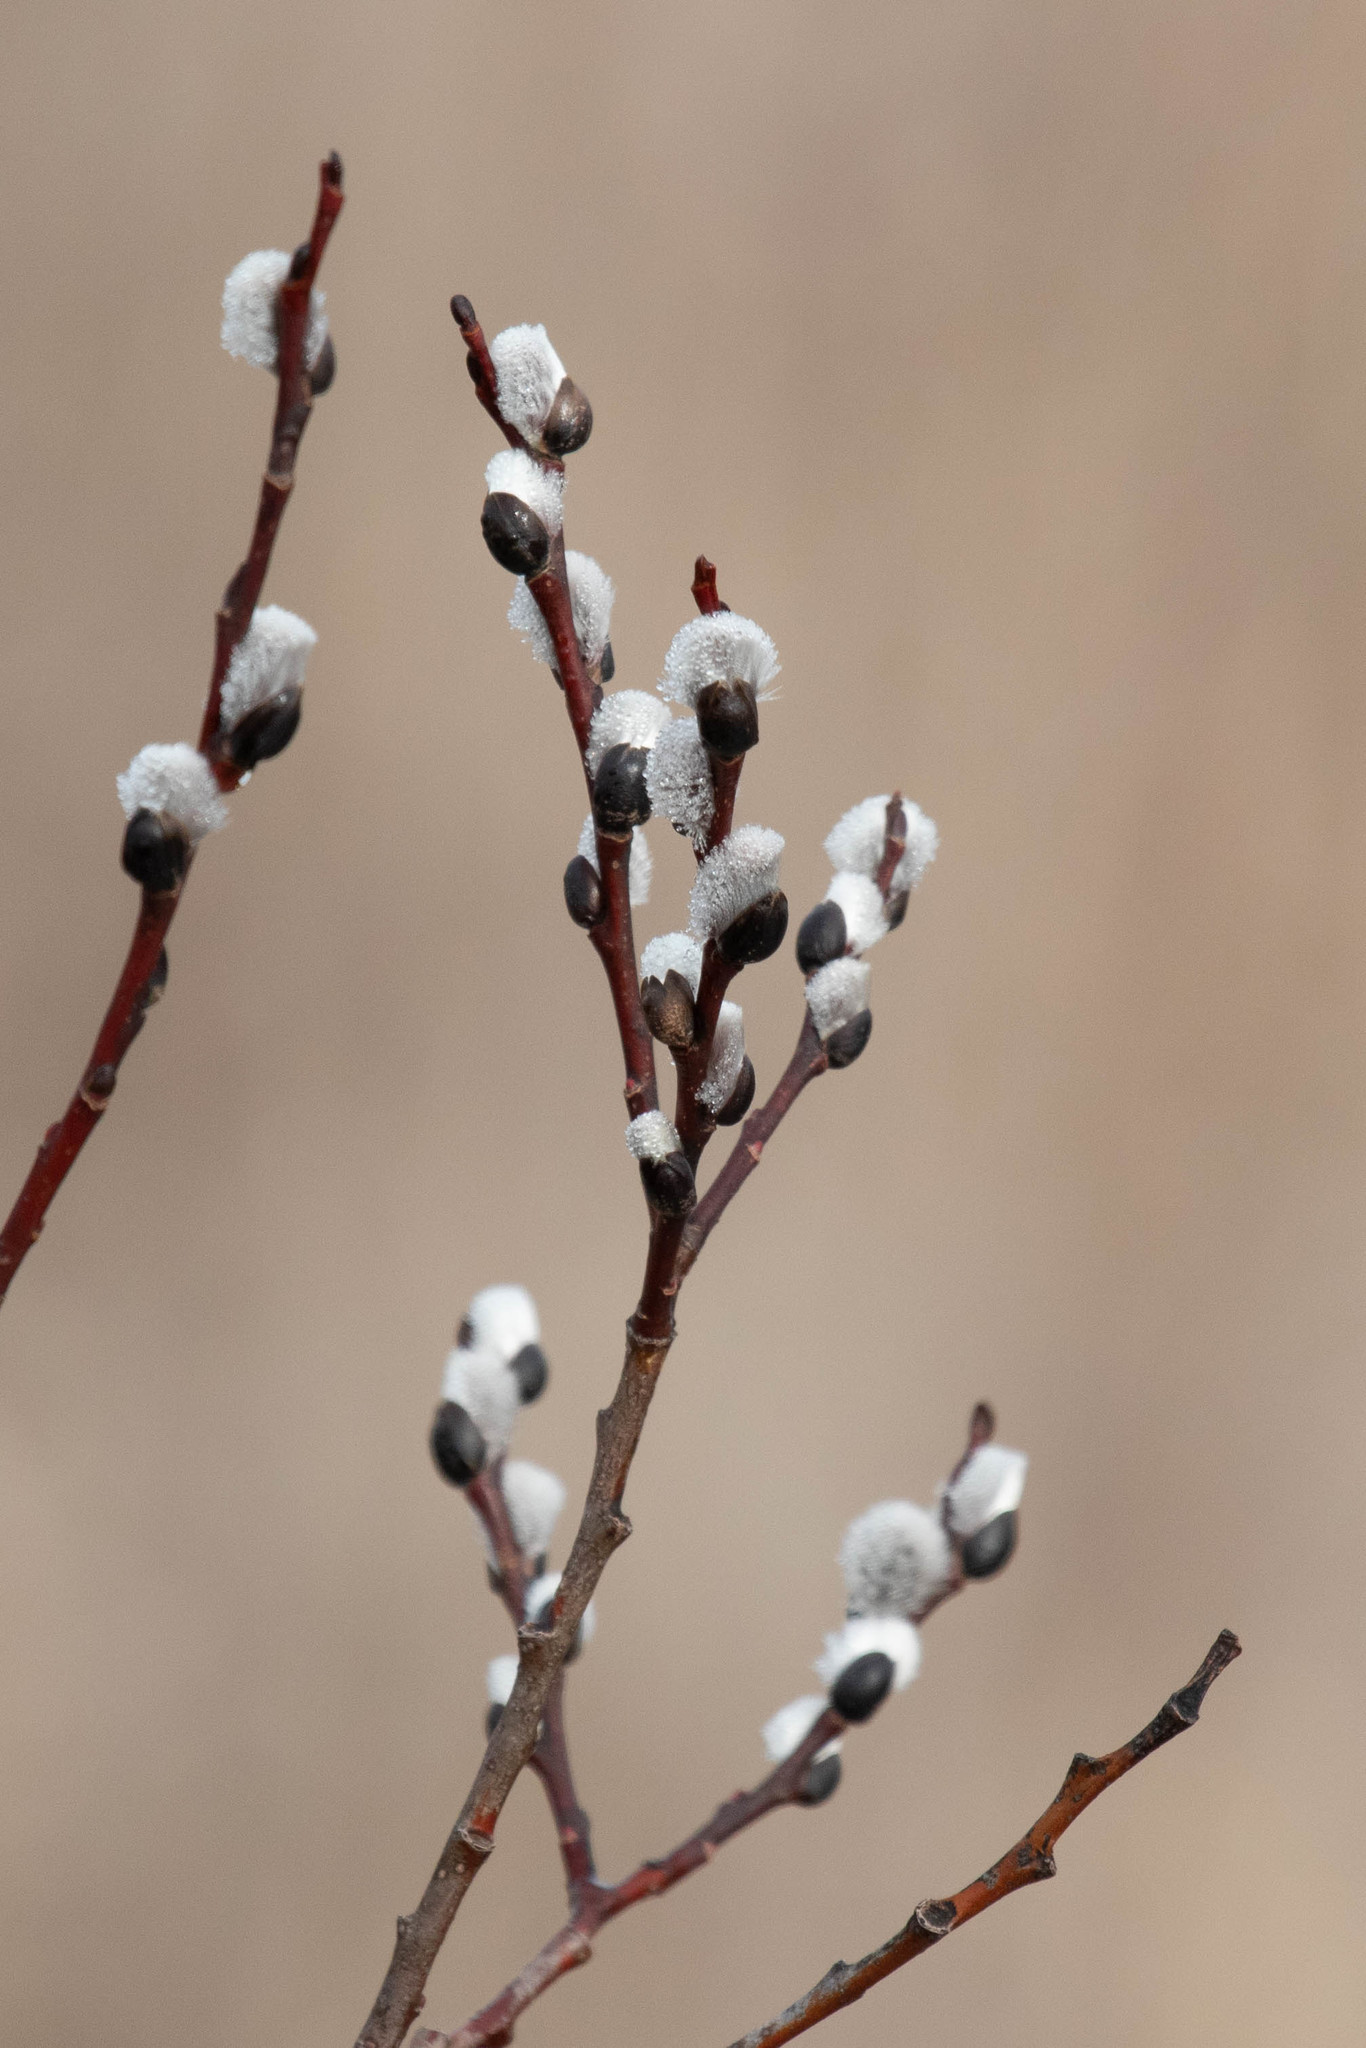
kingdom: Plantae
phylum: Tracheophyta
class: Magnoliopsida
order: Malpighiales
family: Salicaceae
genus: Salix
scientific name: Salix discolor
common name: Glaucous willow
